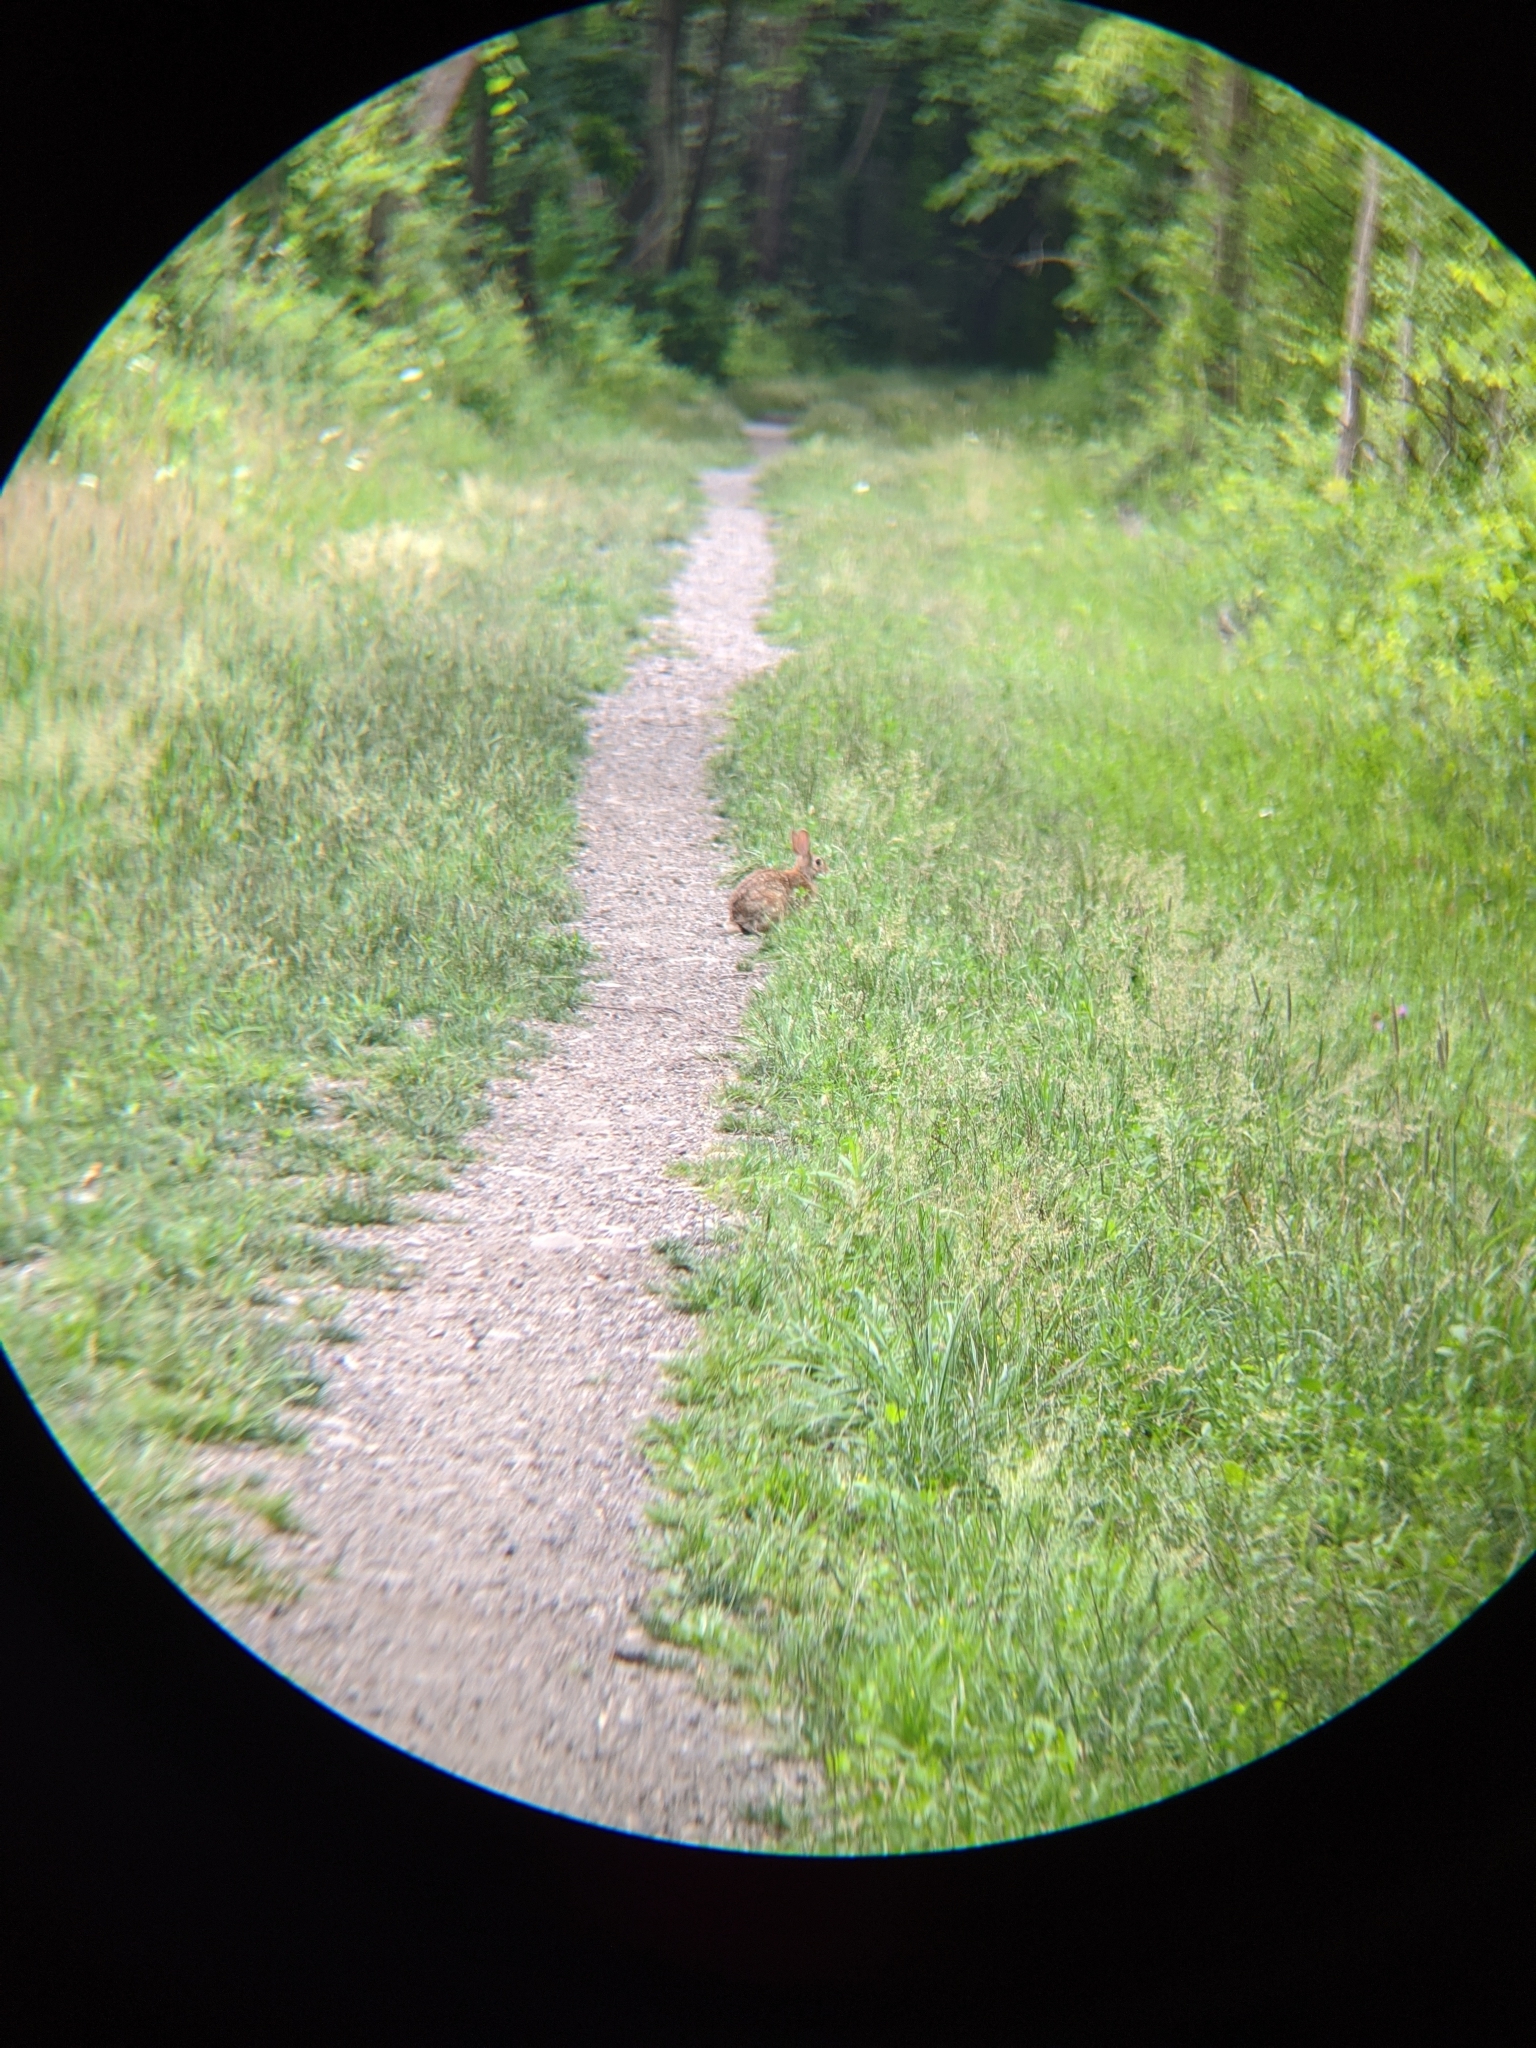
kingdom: Animalia
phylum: Chordata
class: Mammalia
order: Lagomorpha
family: Leporidae
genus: Sylvilagus
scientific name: Sylvilagus floridanus
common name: Eastern cottontail
